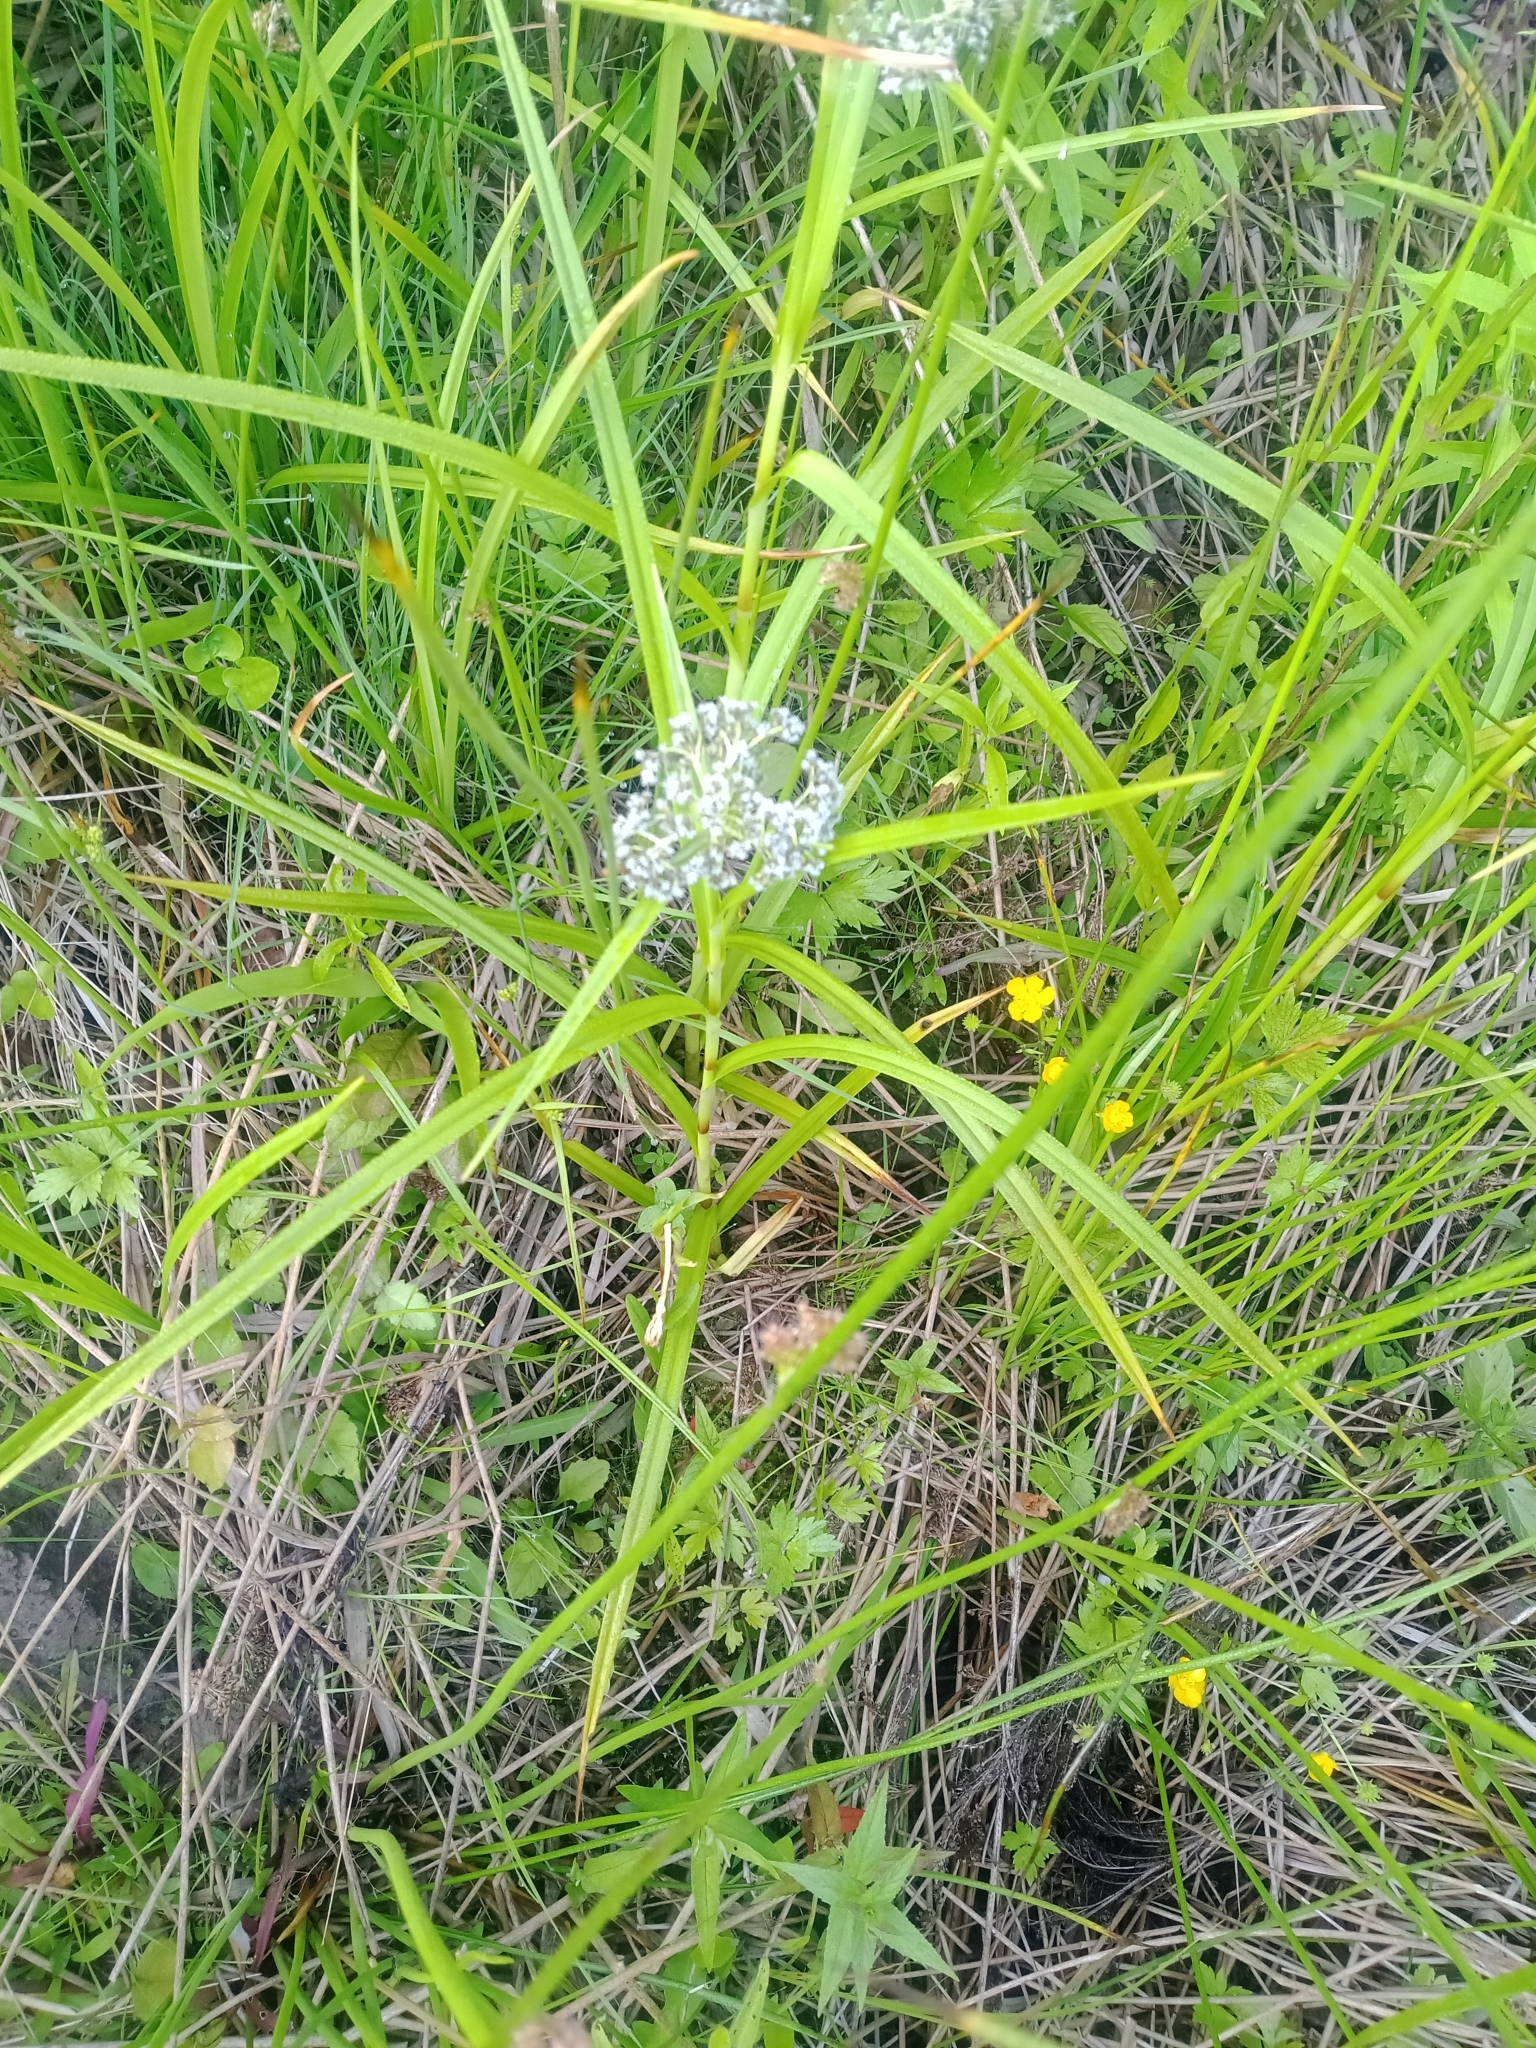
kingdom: Plantae
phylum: Tracheophyta
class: Liliopsida
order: Poales
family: Cyperaceae
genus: Scirpus
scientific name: Scirpus sylvaticus
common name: Wood club-rush
